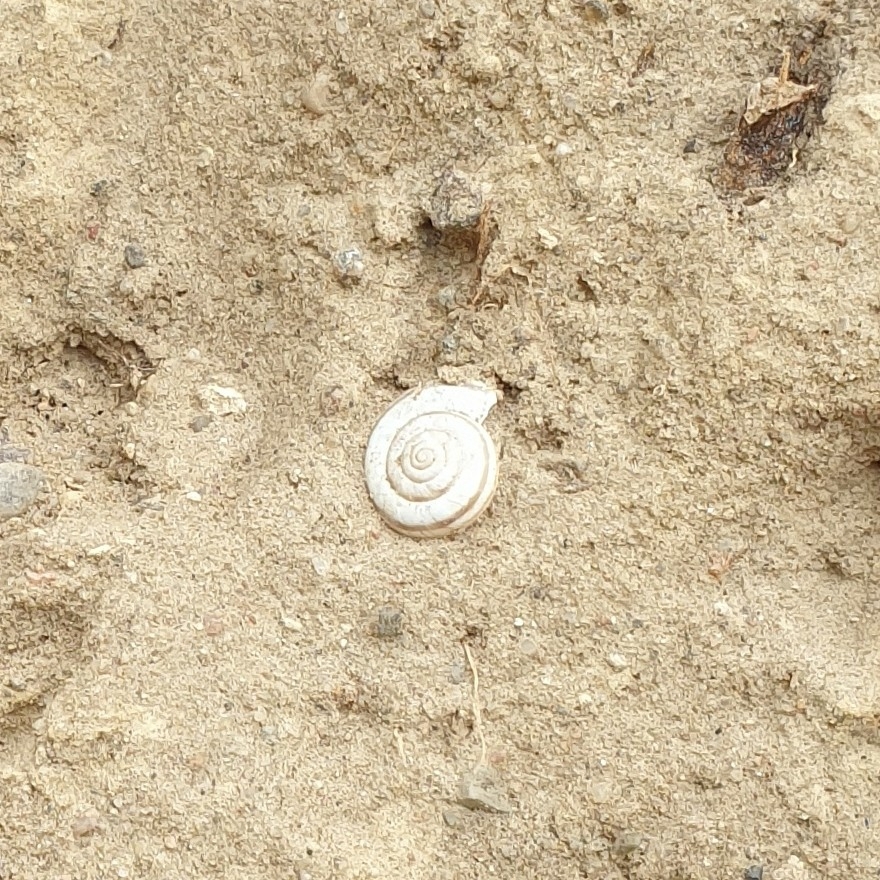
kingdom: Animalia
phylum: Mollusca
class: Gastropoda
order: Stylommatophora
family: Geomitridae
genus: Xerolenta
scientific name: Xerolenta obvia
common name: White heath snail
